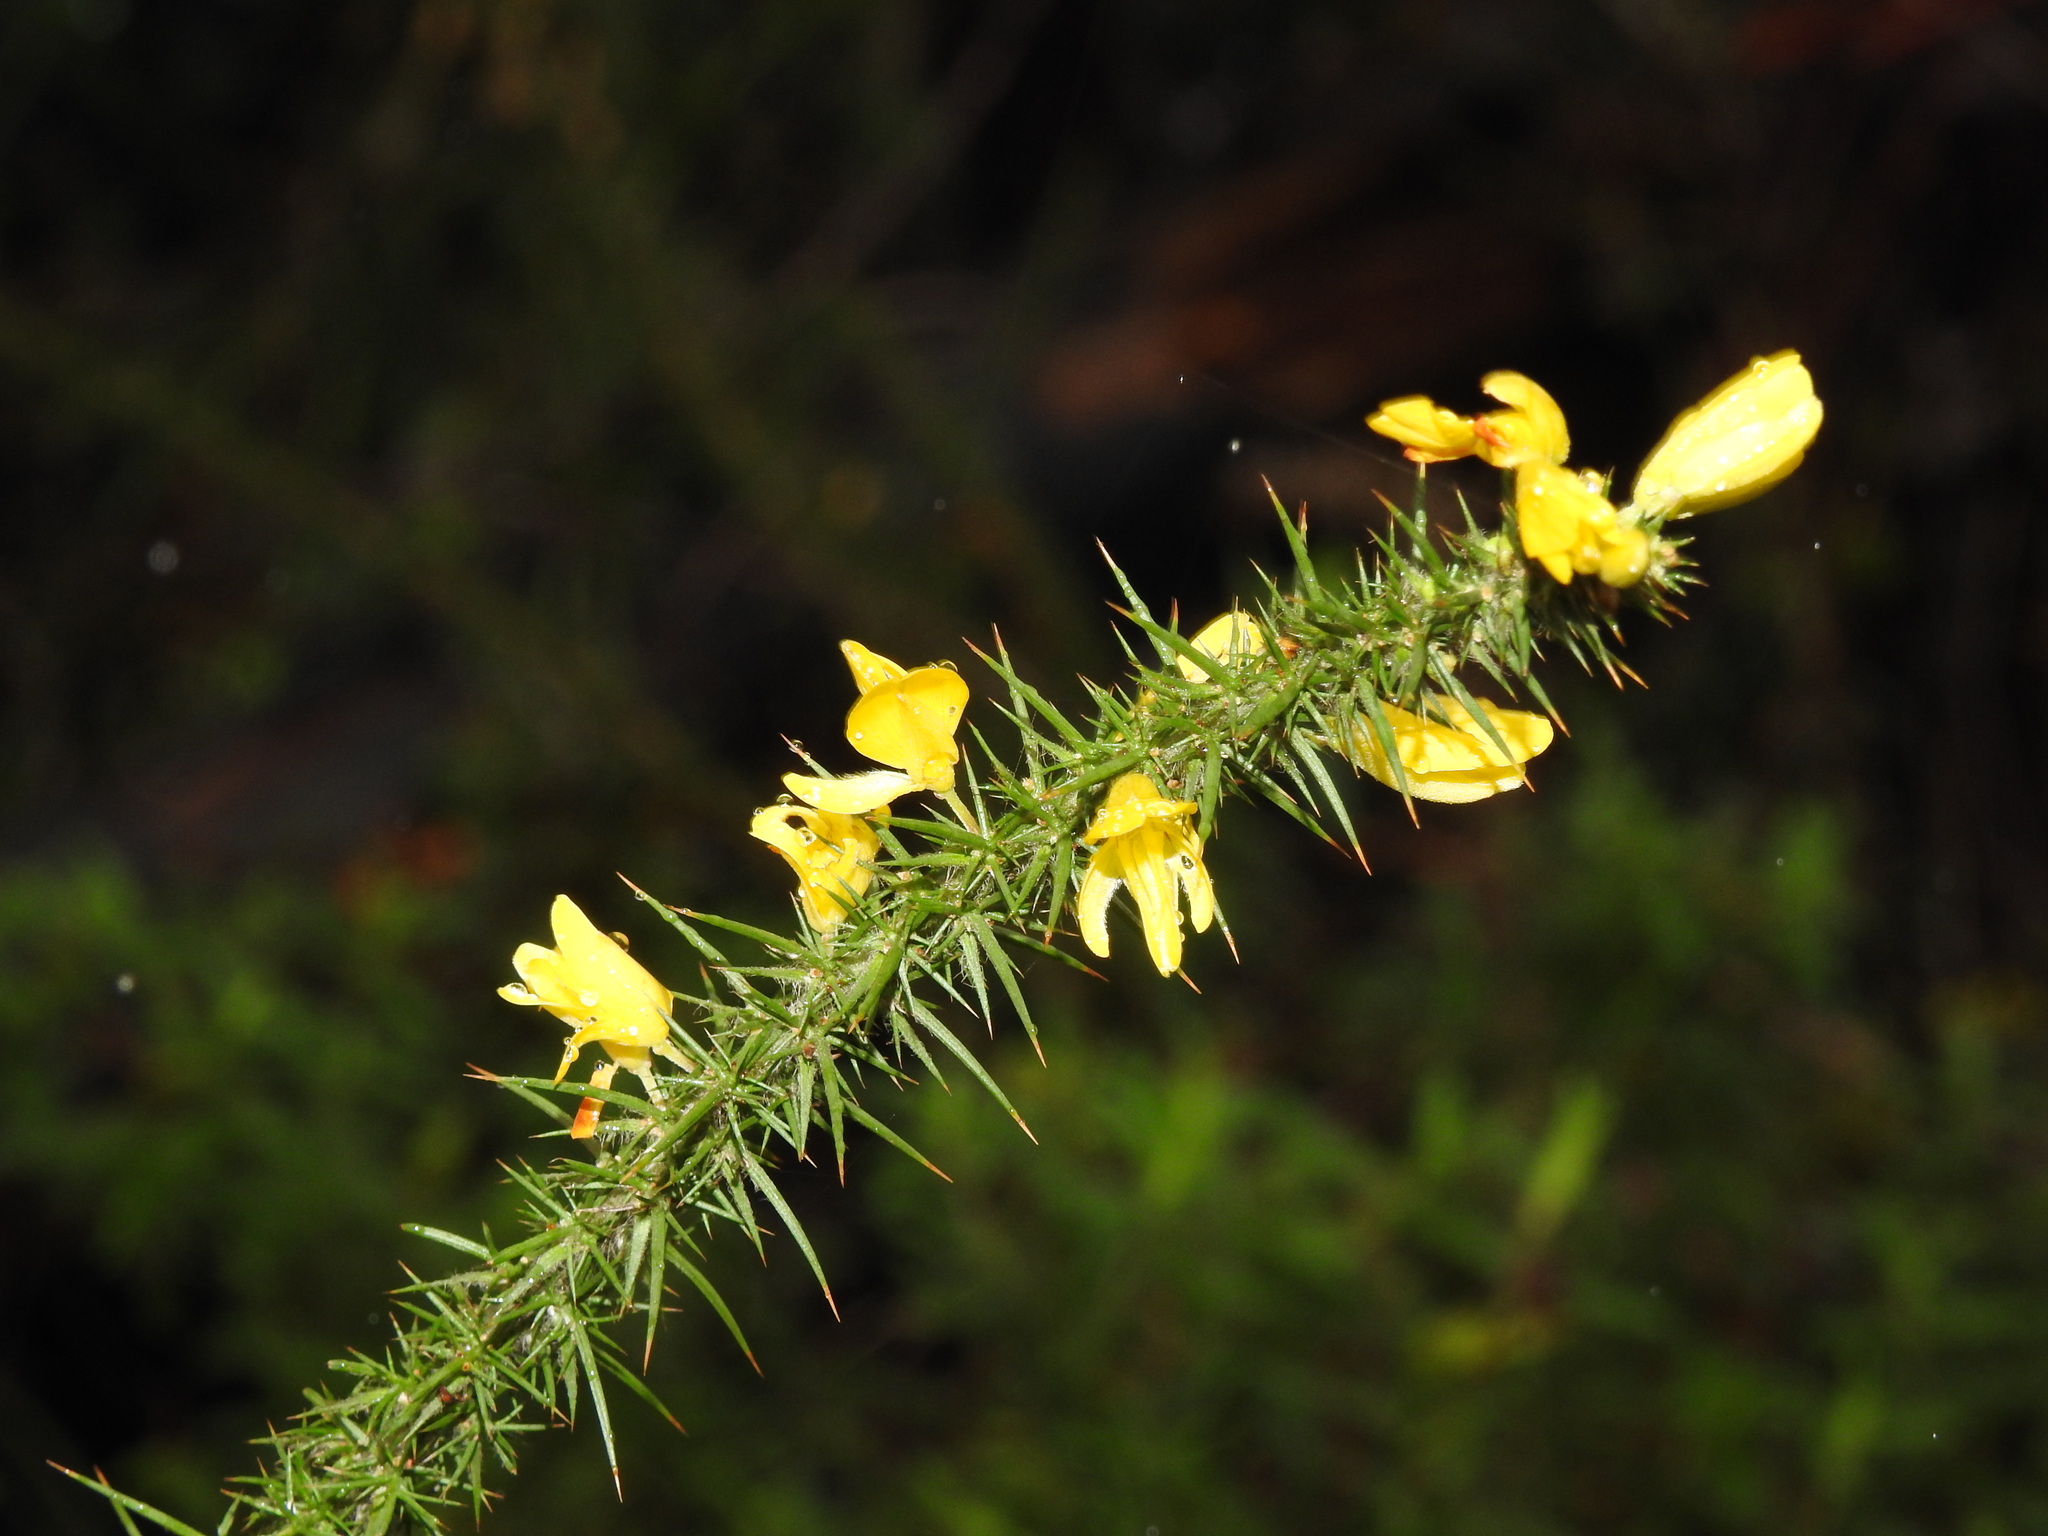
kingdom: Plantae
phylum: Tracheophyta
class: Magnoliopsida
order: Fabales
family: Fabaceae
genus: Ulex
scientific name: Ulex minor
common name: Dwarf gorse
